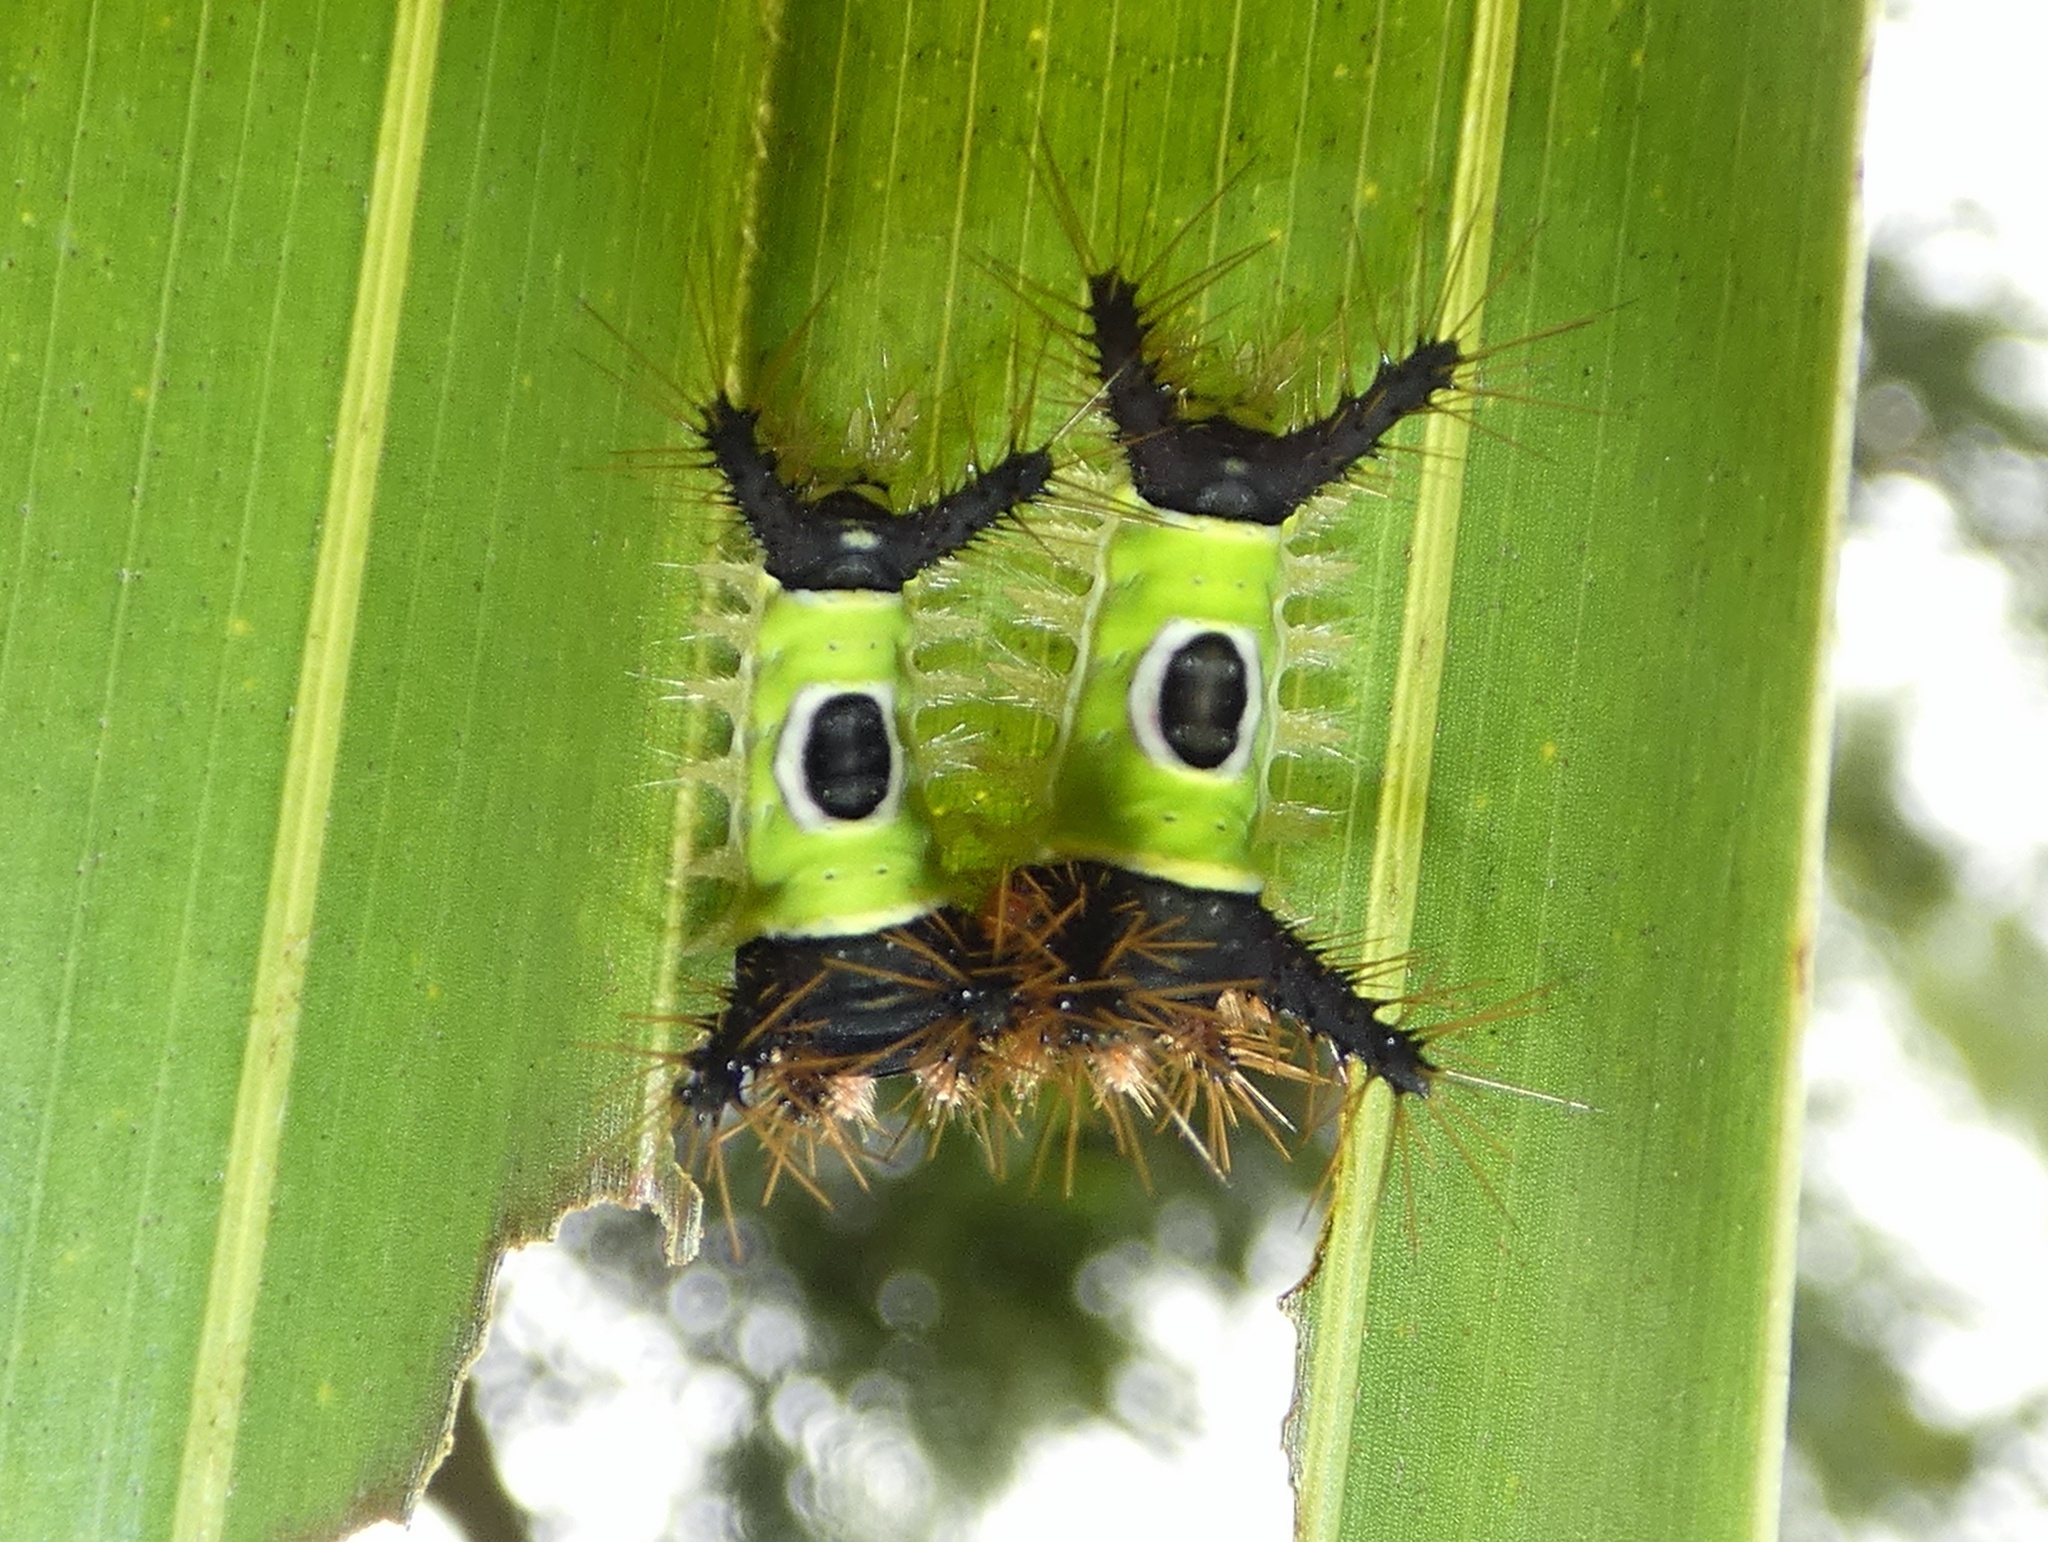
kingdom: Animalia
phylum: Arthropoda
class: Insecta
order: Lepidoptera
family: Limacodidae
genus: Acharia
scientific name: Acharia hyperoche
